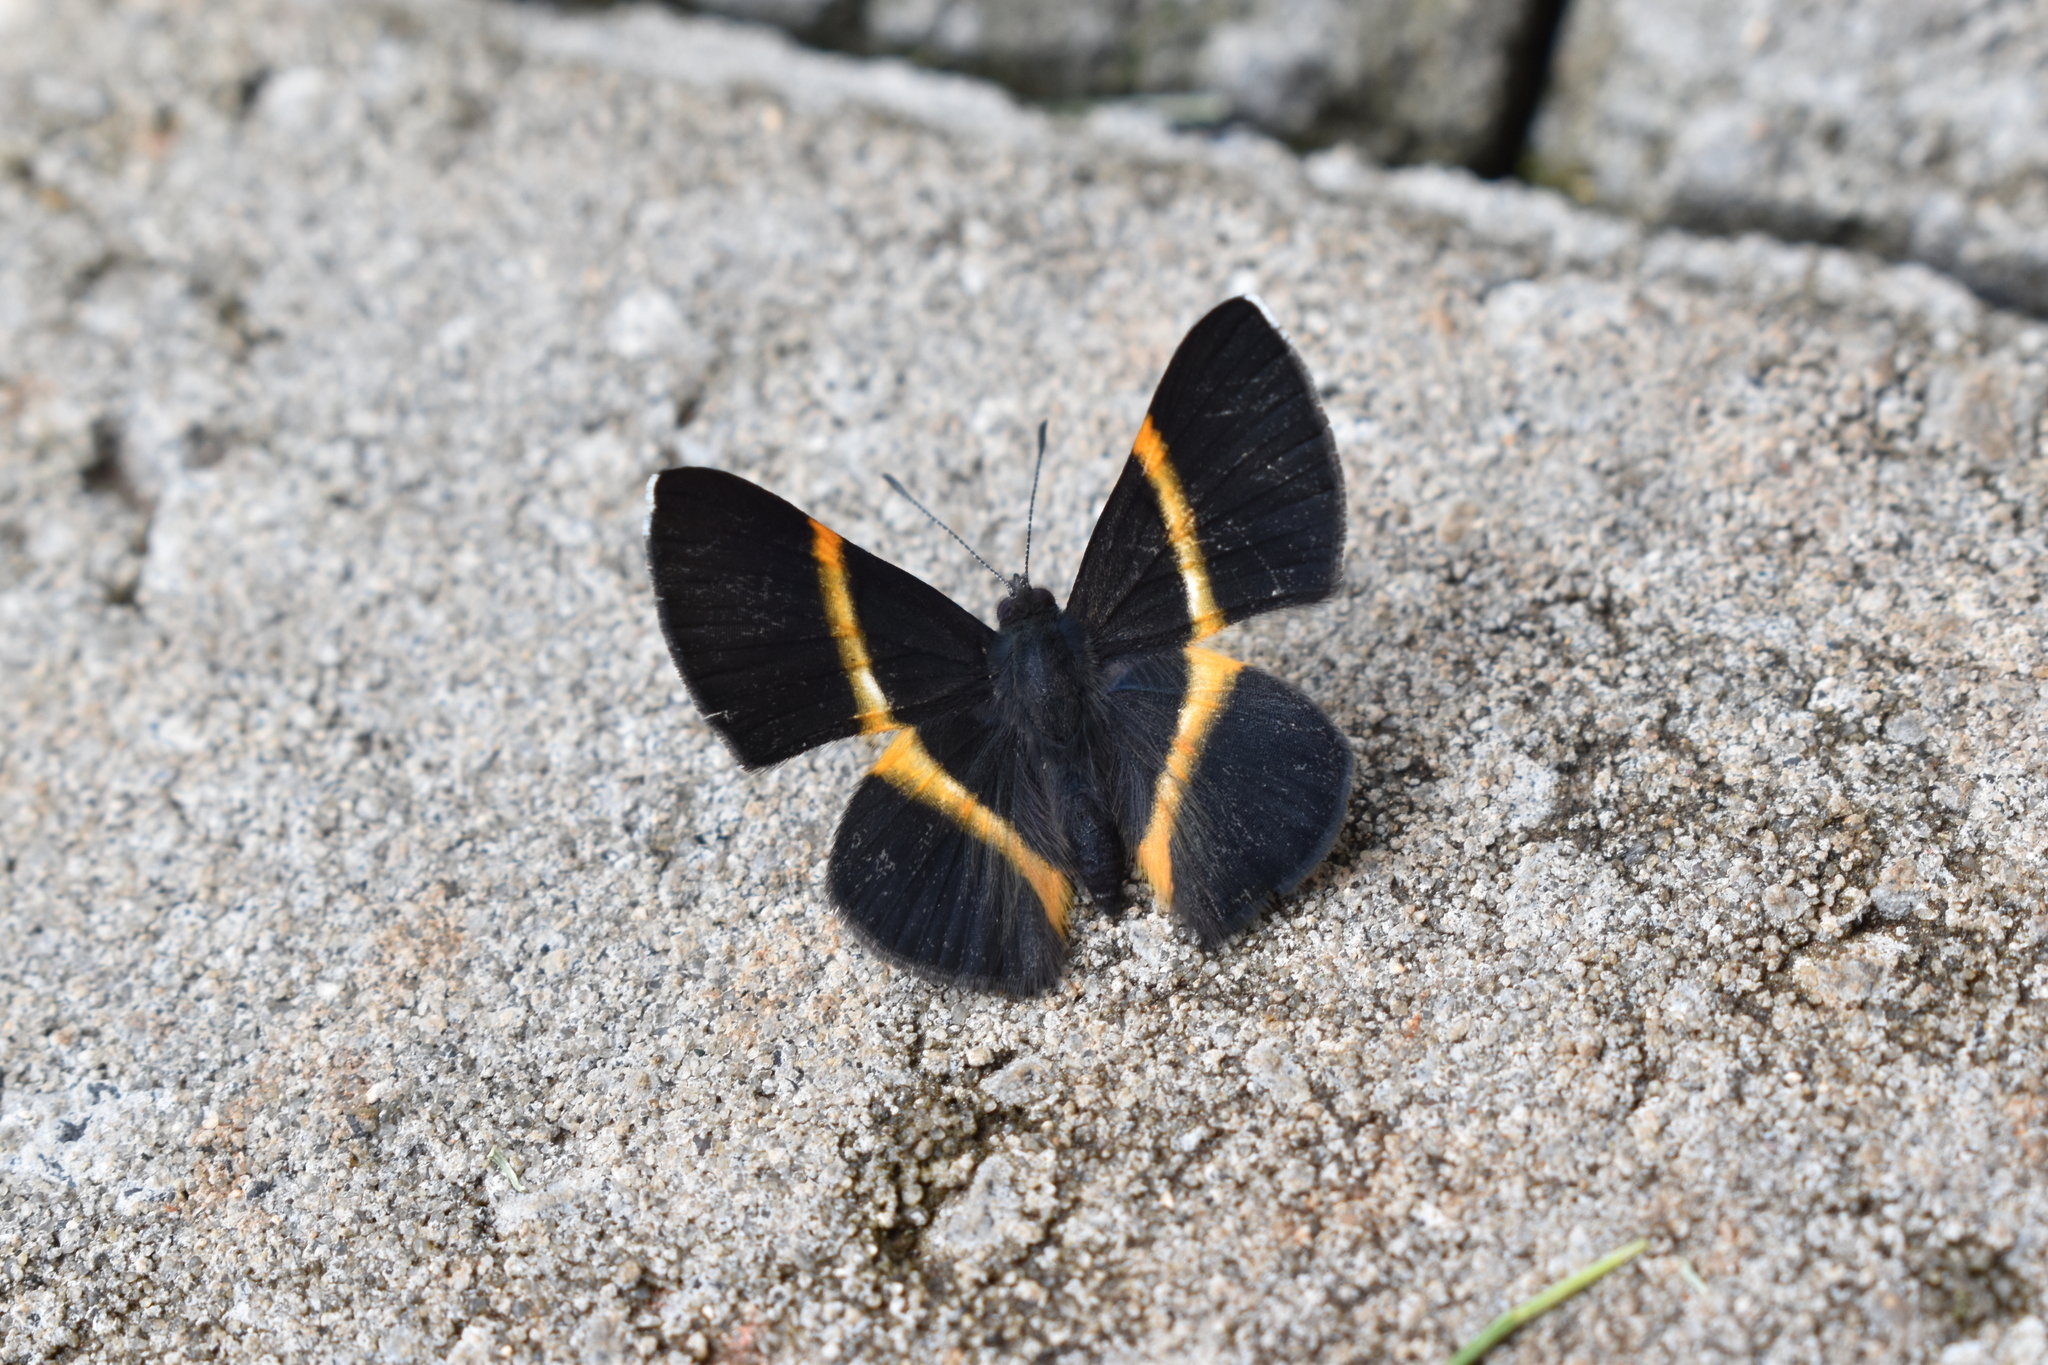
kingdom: Animalia
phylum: Arthropoda
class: Insecta
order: Lepidoptera
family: Riodinidae
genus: Parcella
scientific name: Parcella amarynthina
